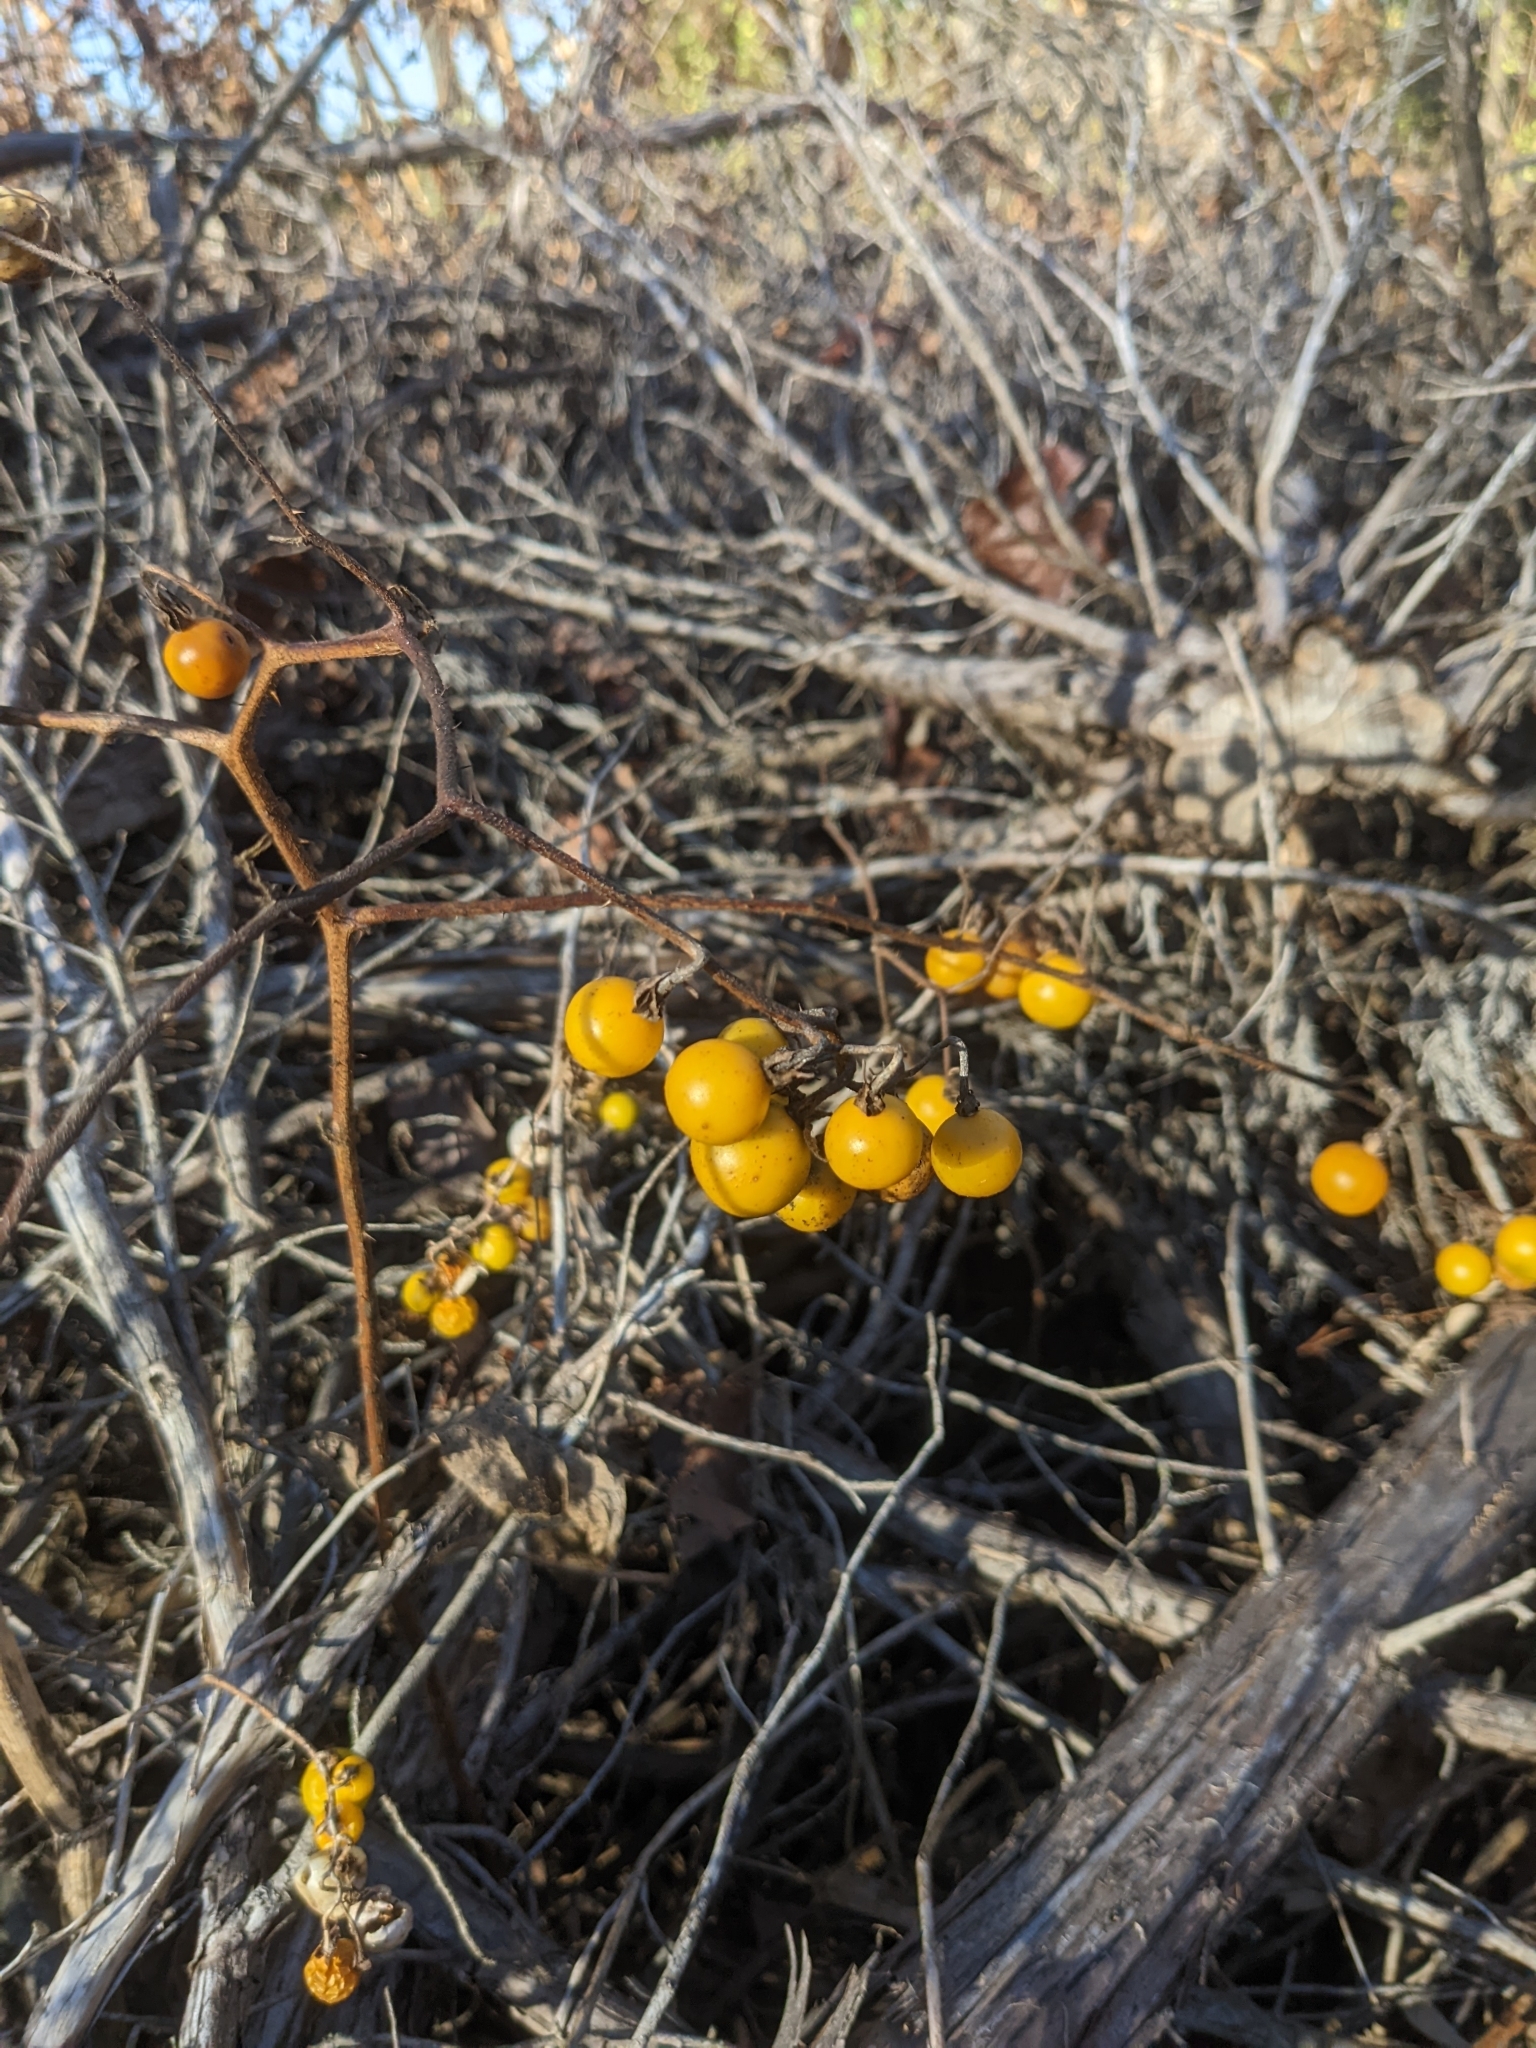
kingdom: Plantae
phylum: Tracheophyta
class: Magnoliopsida
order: Solanales
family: Solanaceae
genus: Solanum
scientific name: Solanum carolinense
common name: Horse-nettle
